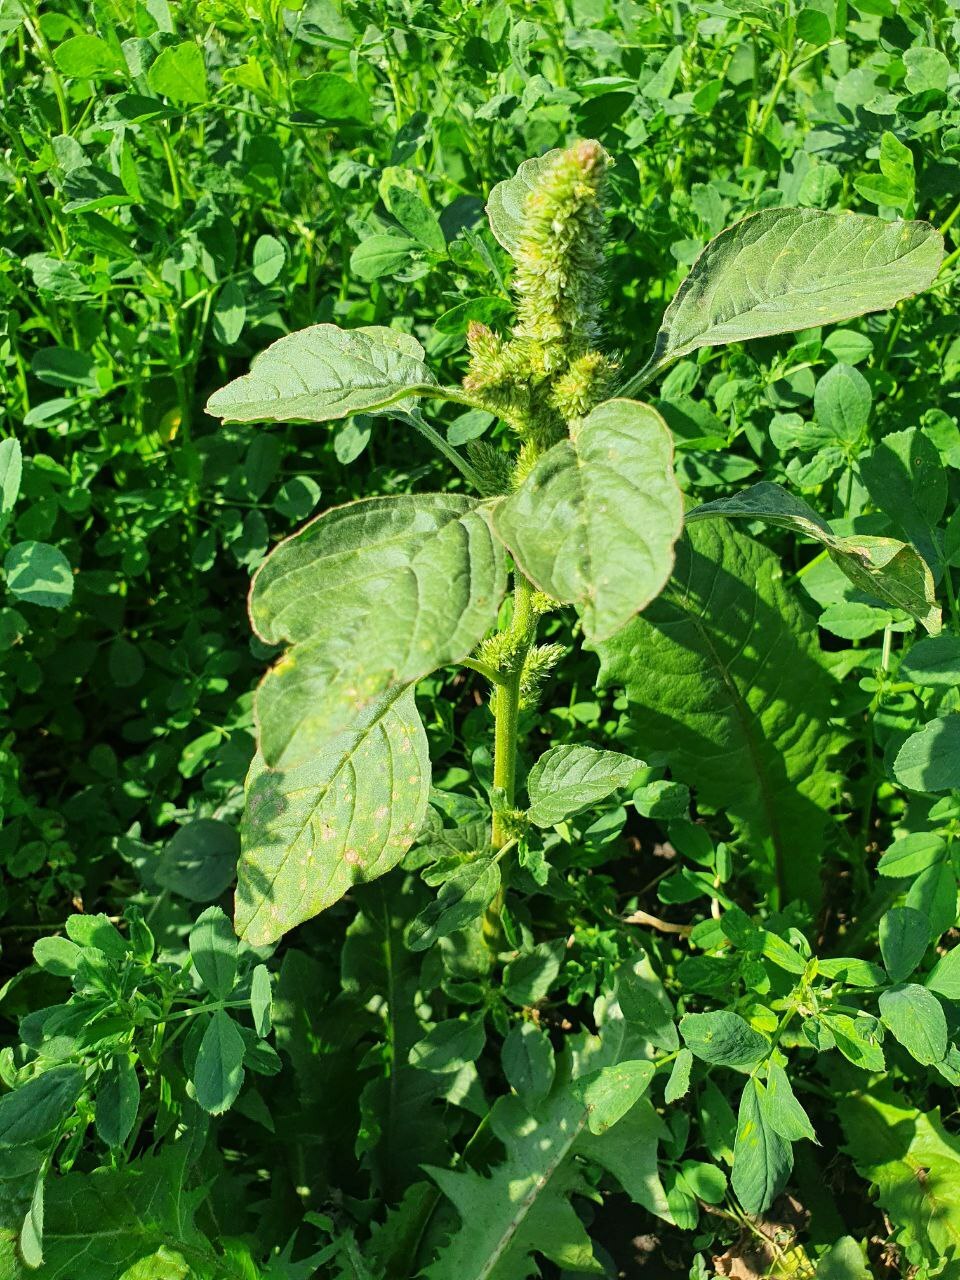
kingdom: Plantae
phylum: Tracheophyta
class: Magnoliopsida
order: Caryophyllales
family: Amaranthaceae
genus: Amaranthus
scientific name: Amaranthus retroflexus
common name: Redroot amaranth
